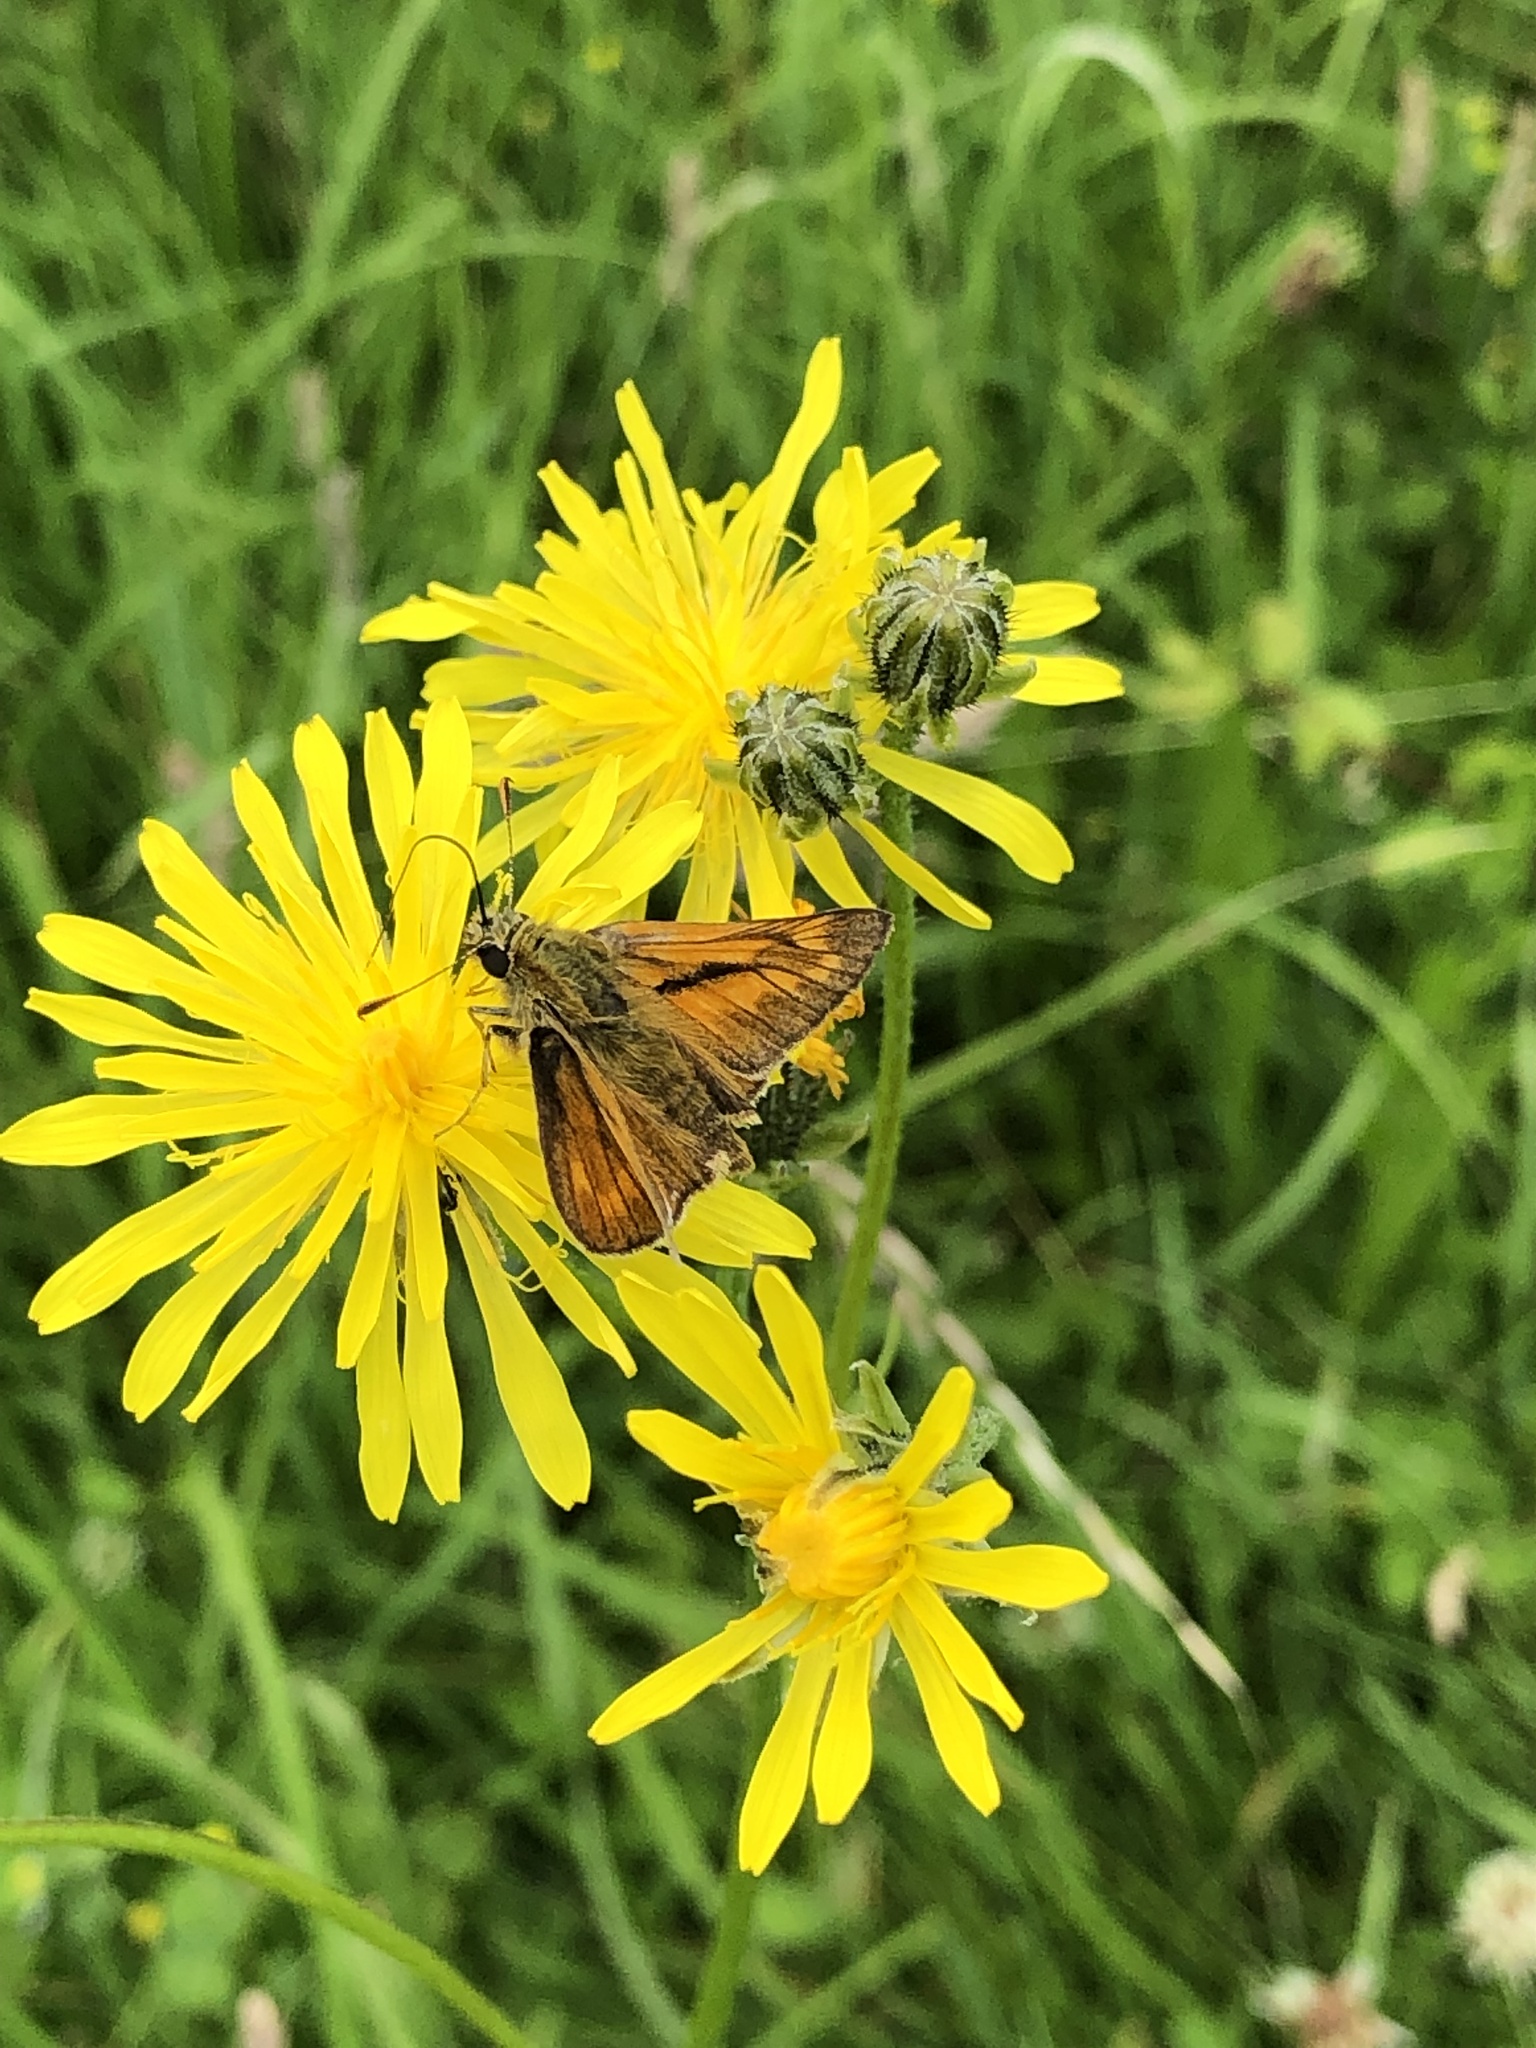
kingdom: Animalia
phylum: Arthropoda
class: Insecta
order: Lepidoptera
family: Hesperiidae
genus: Ochlodes
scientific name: Ochlodes venata
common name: Large skipper
